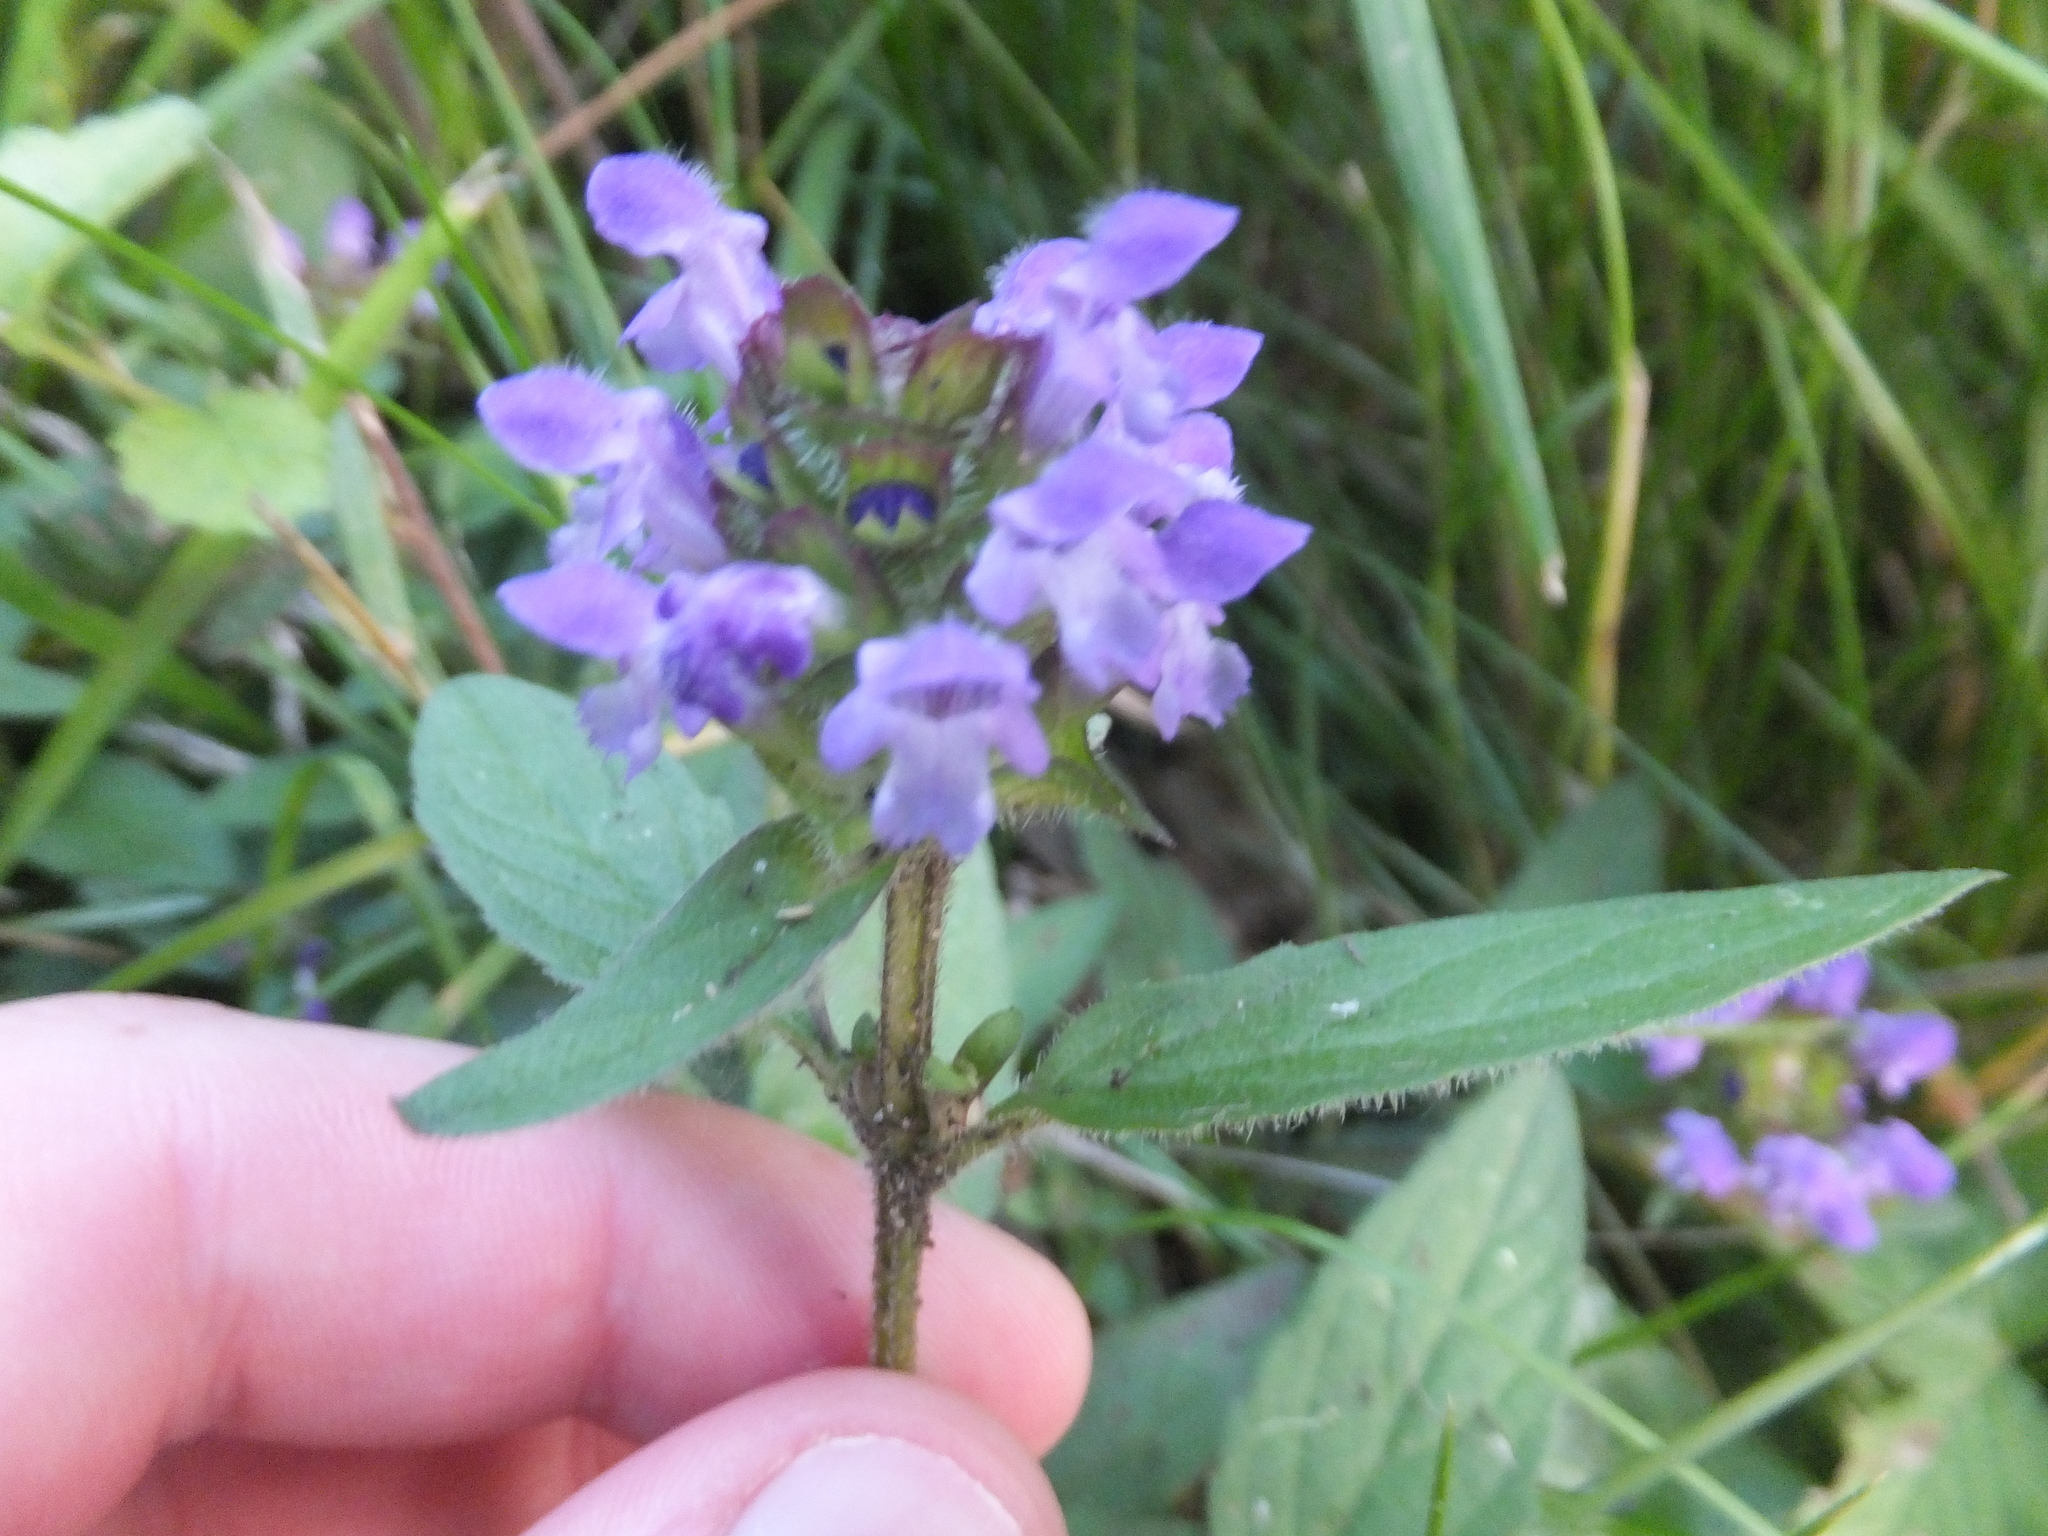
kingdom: Plantae
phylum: Tracheophyta
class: Magnoliopsida
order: Lamiales
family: Lamiaceae
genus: Prunella
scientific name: Prunella vulgaris
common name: Heal-all
